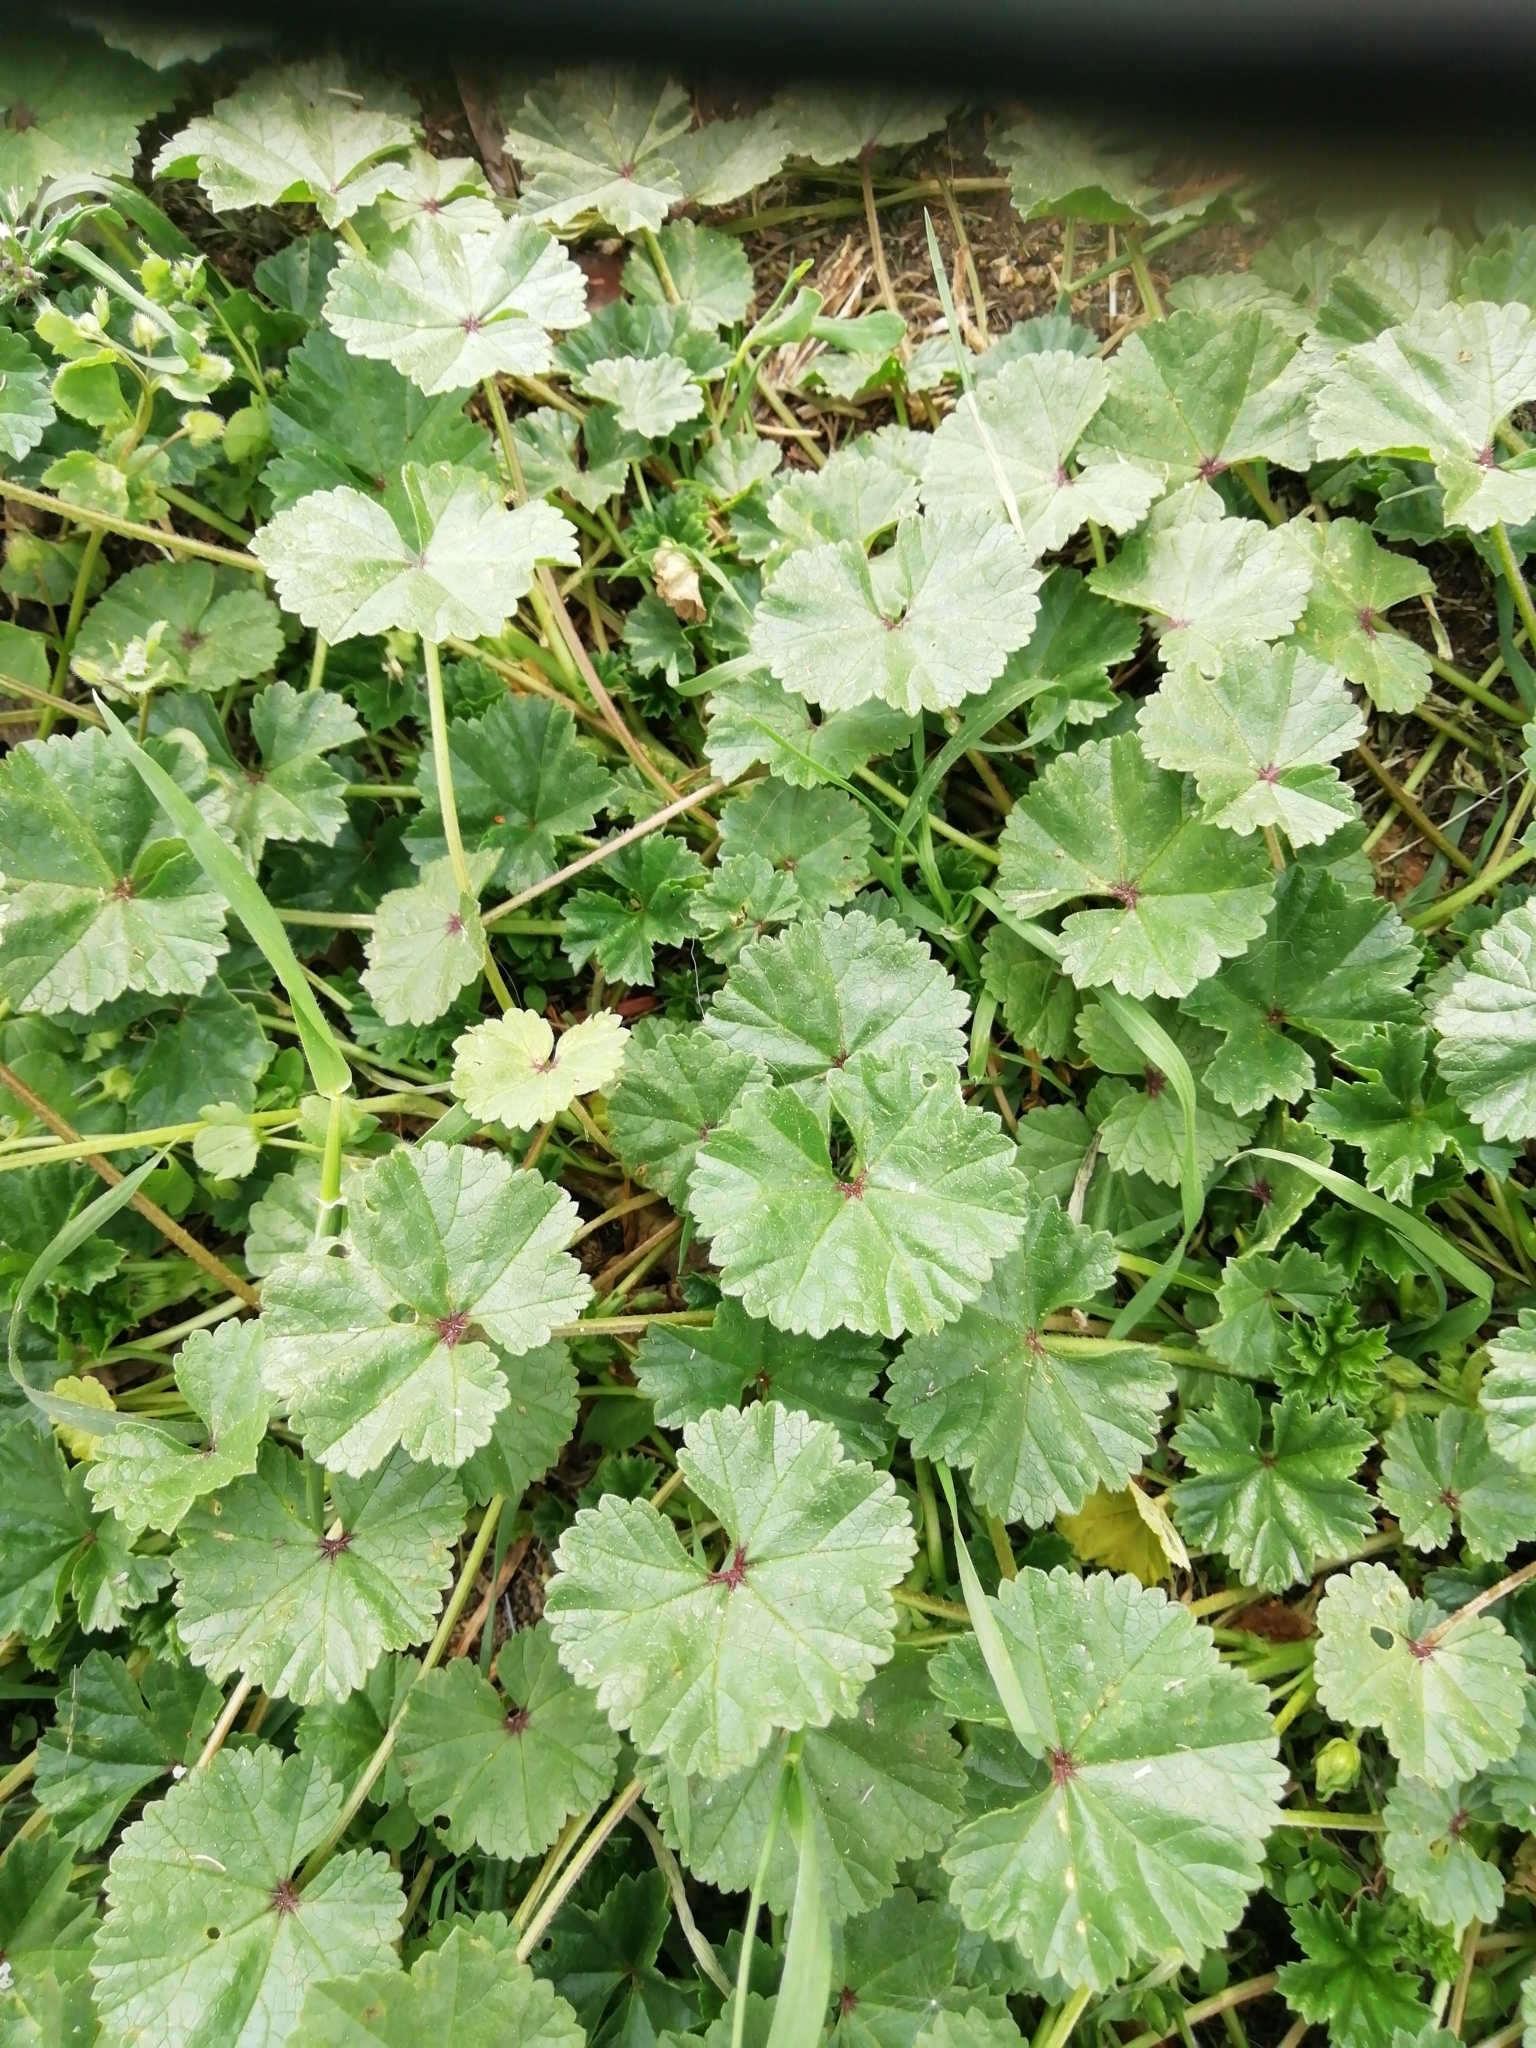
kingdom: Plantae
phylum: Tracheophyta
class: Magnoliopsida
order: Malvales
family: Malvaceae
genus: Malva
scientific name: Malva neglecta
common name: Common mallow
